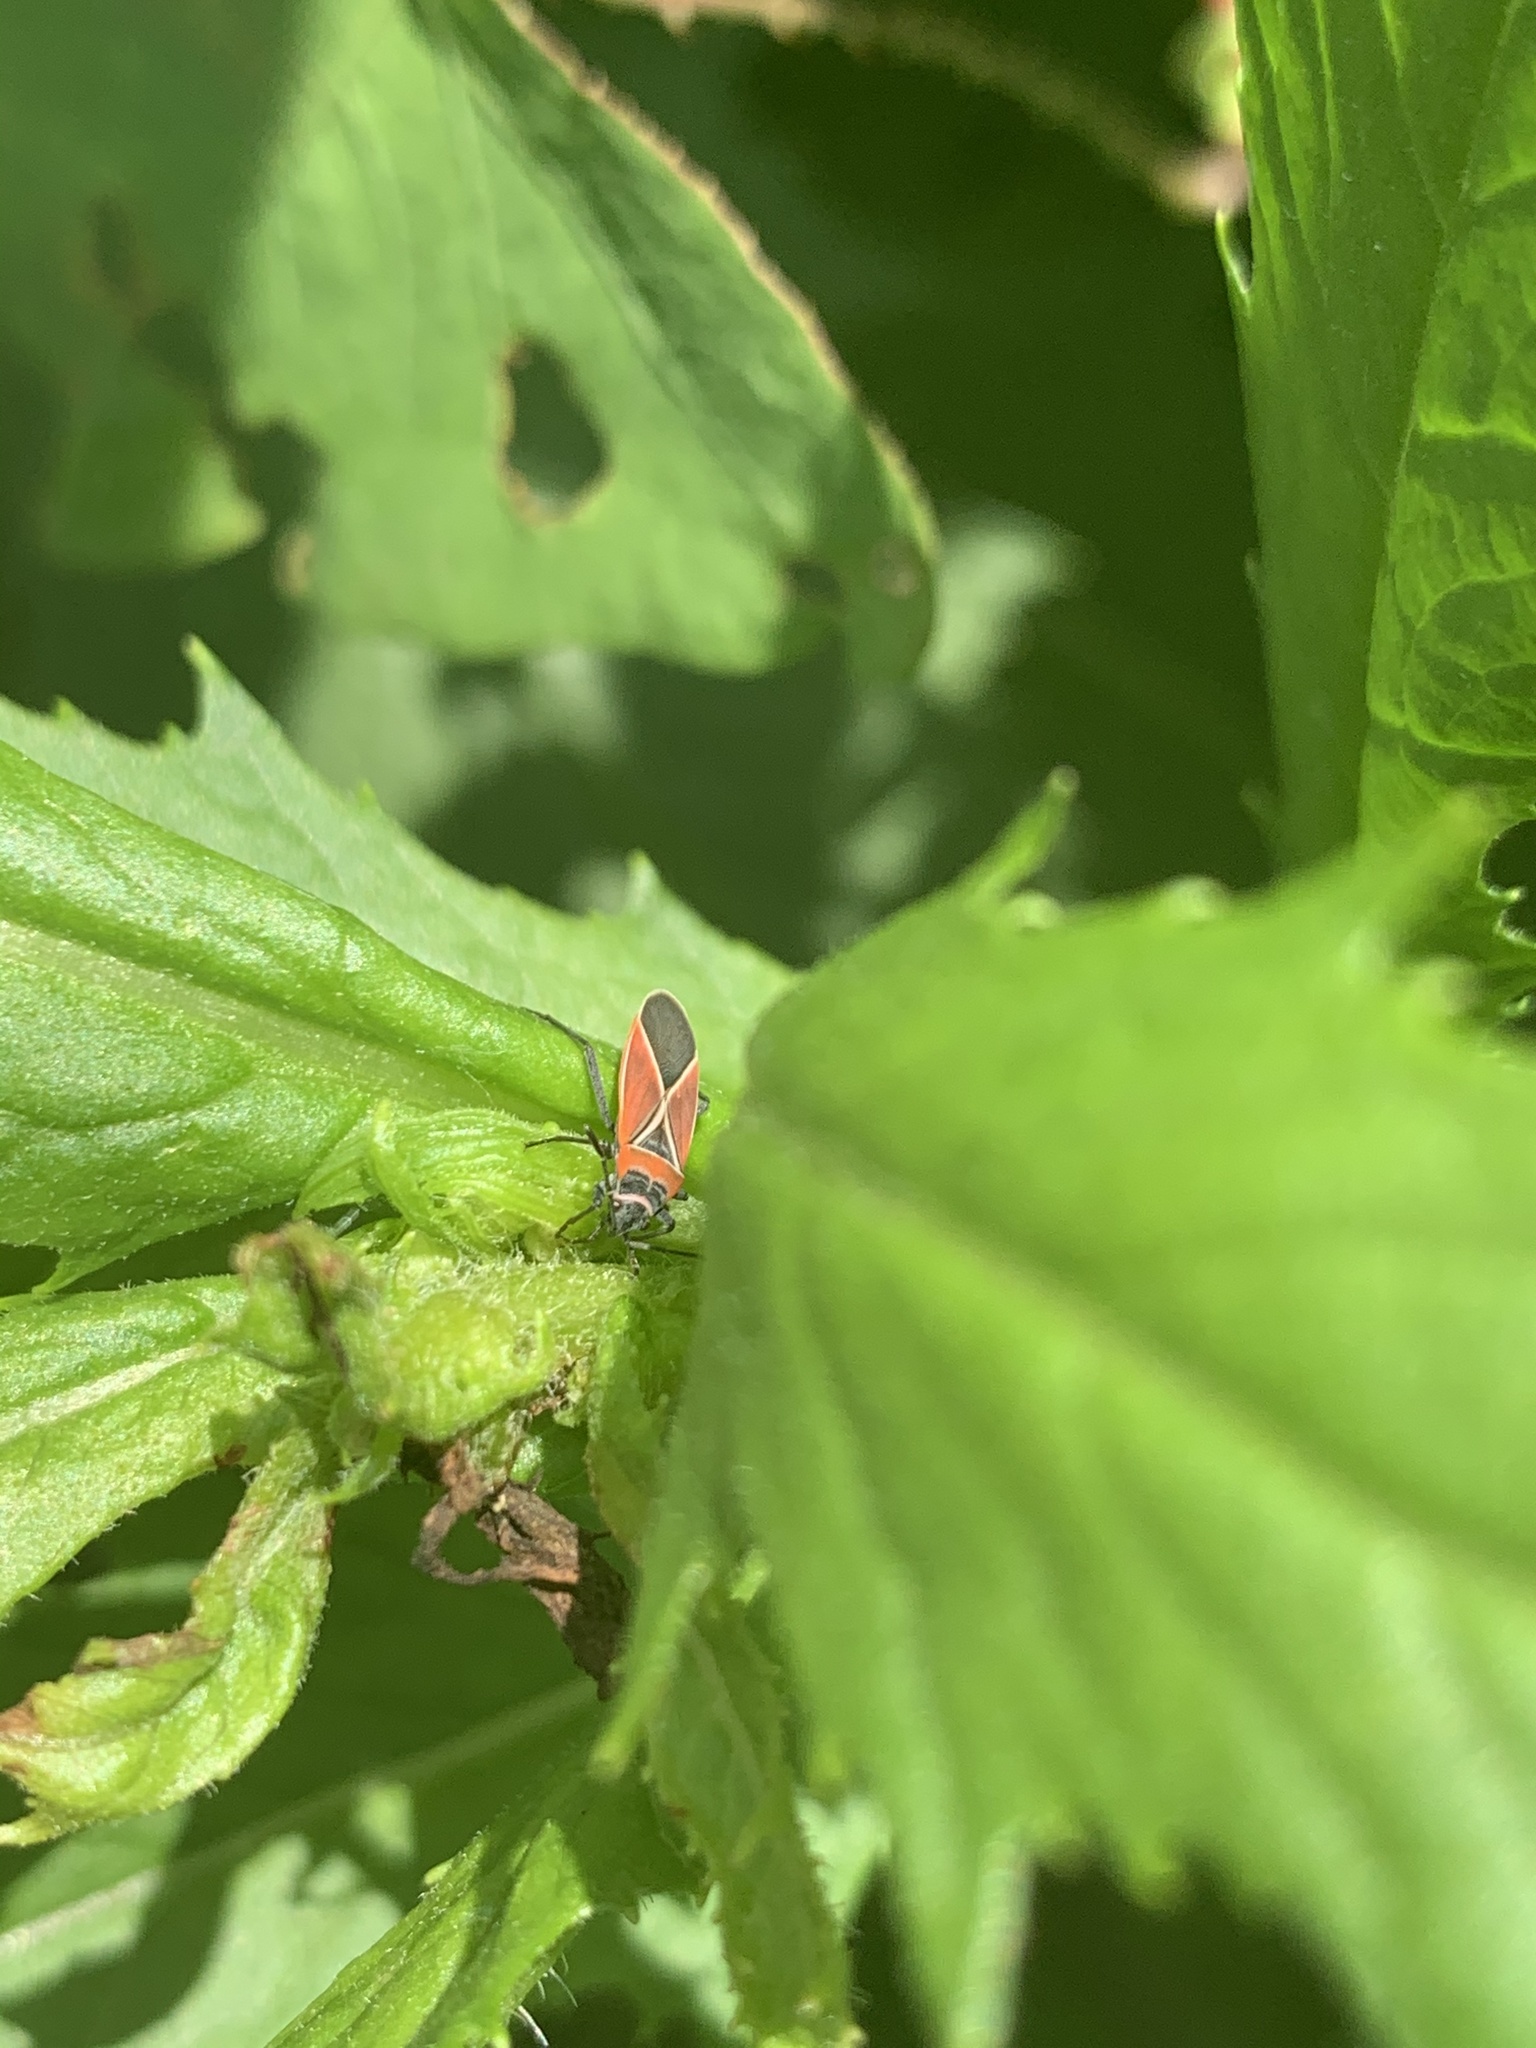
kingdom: Animalia
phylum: Arthropoda
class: Insecta
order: Hemiptera
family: Lygaeidae
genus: Neacoryphus
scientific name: Neacoryphus bicrucis
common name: Lygaeid bug
